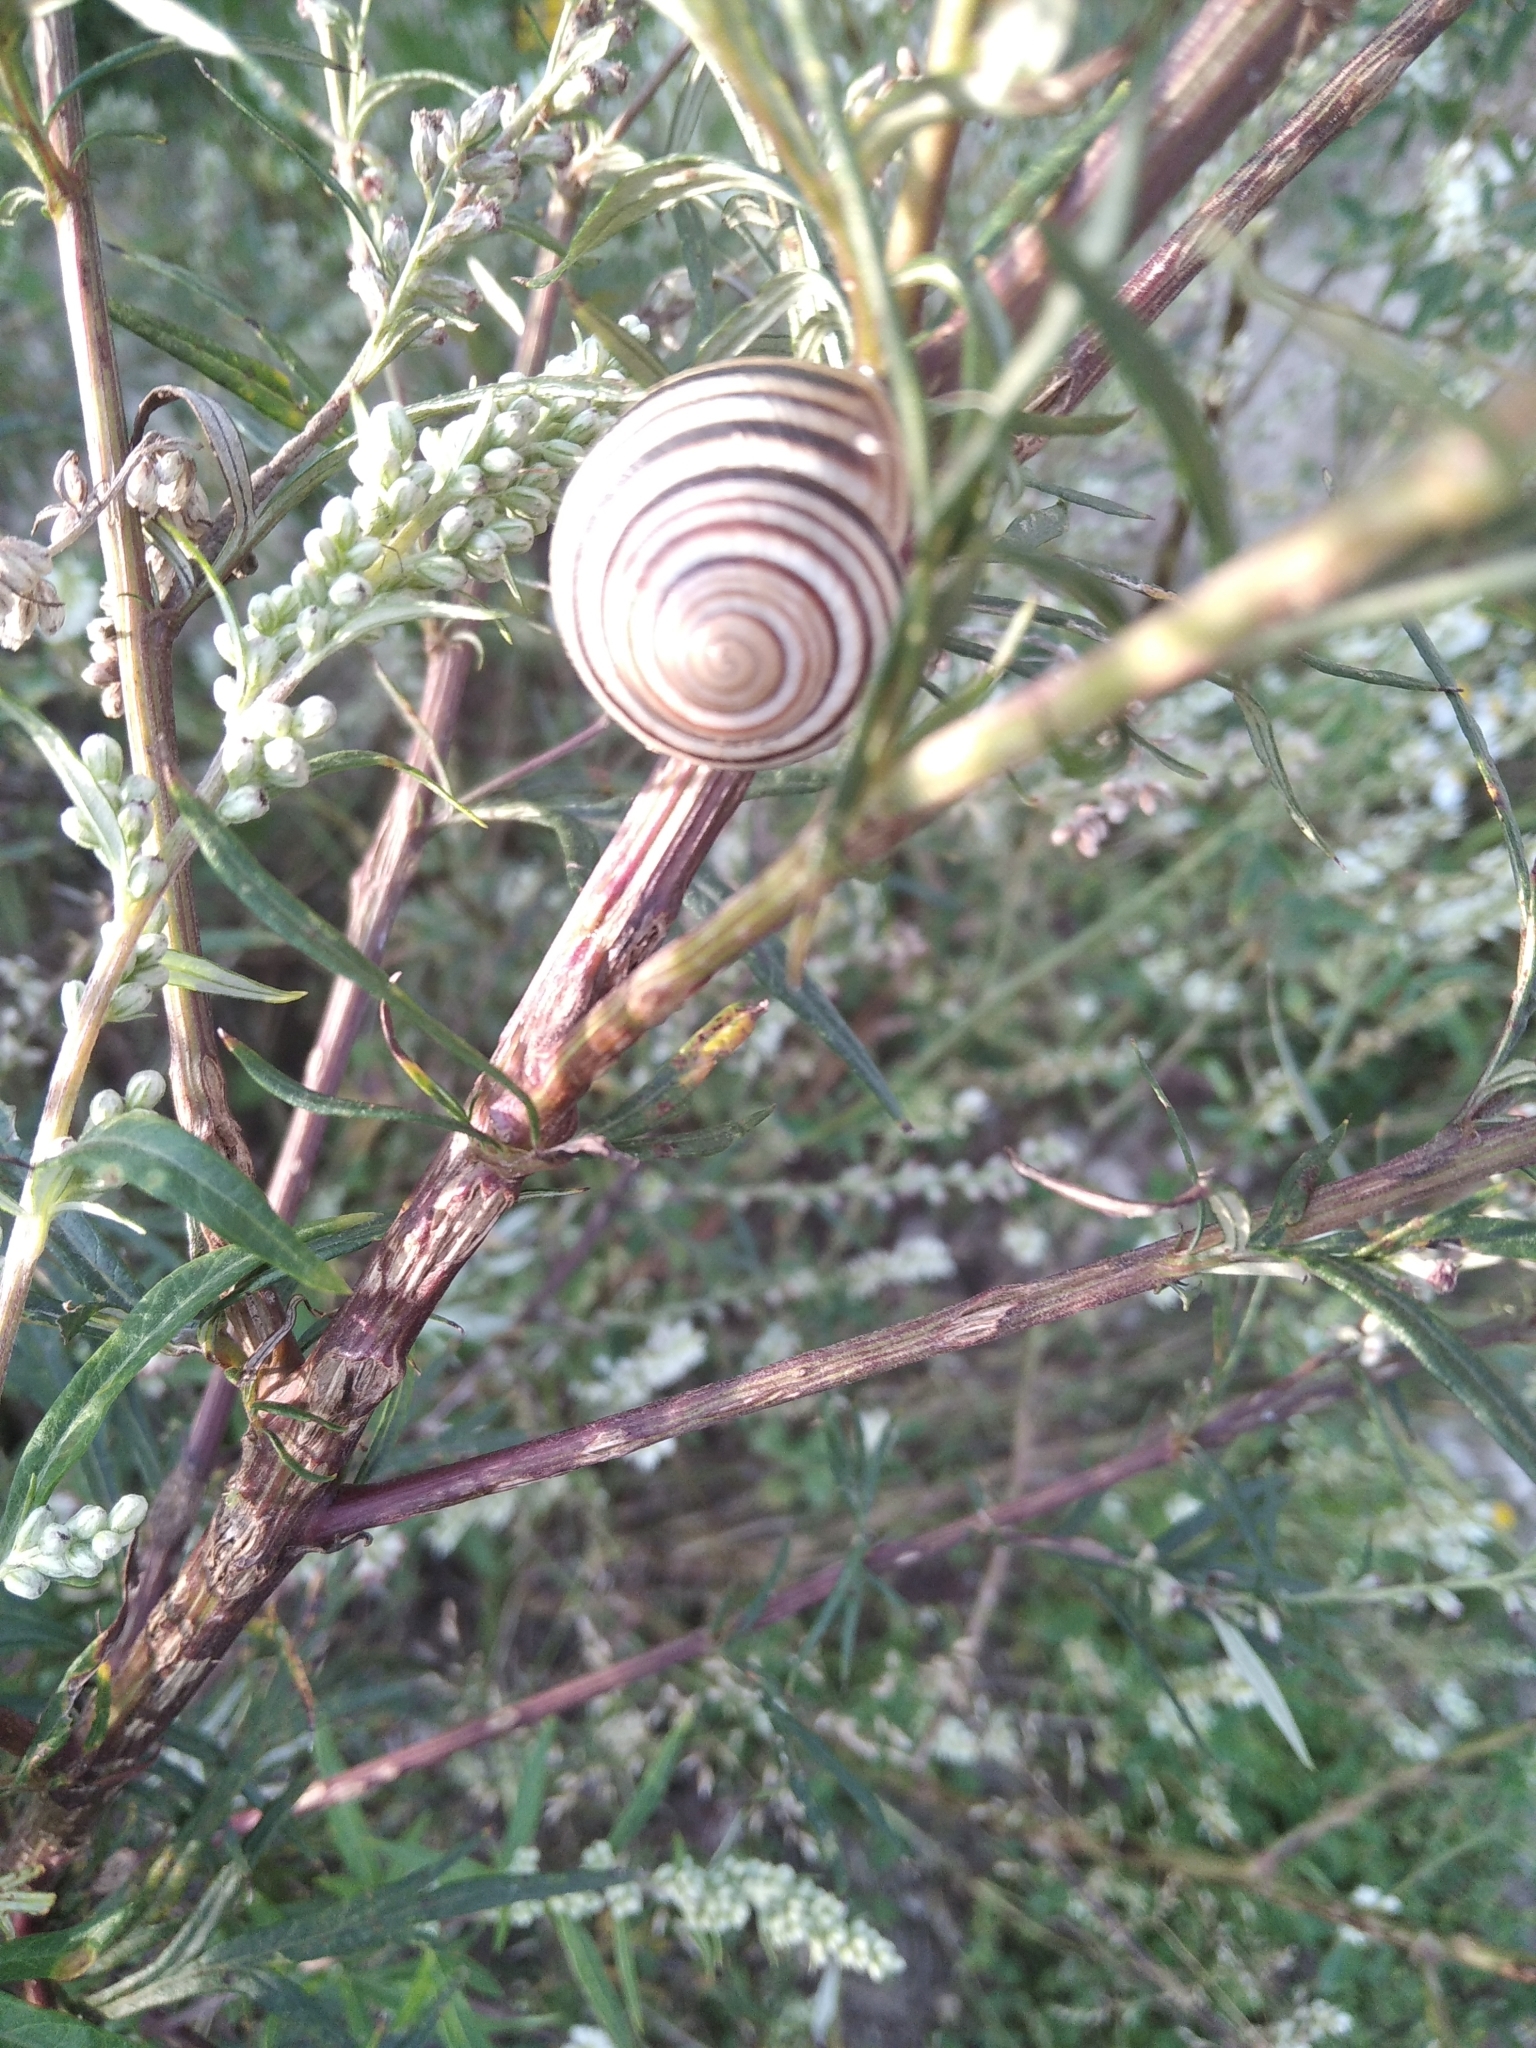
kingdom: Animalia
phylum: Mollusca
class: Gastropoda
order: Stylommatophora
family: Helicidae
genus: Caucasotachea
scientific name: Caucasotachea vindobonensis
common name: European helicid land snail
